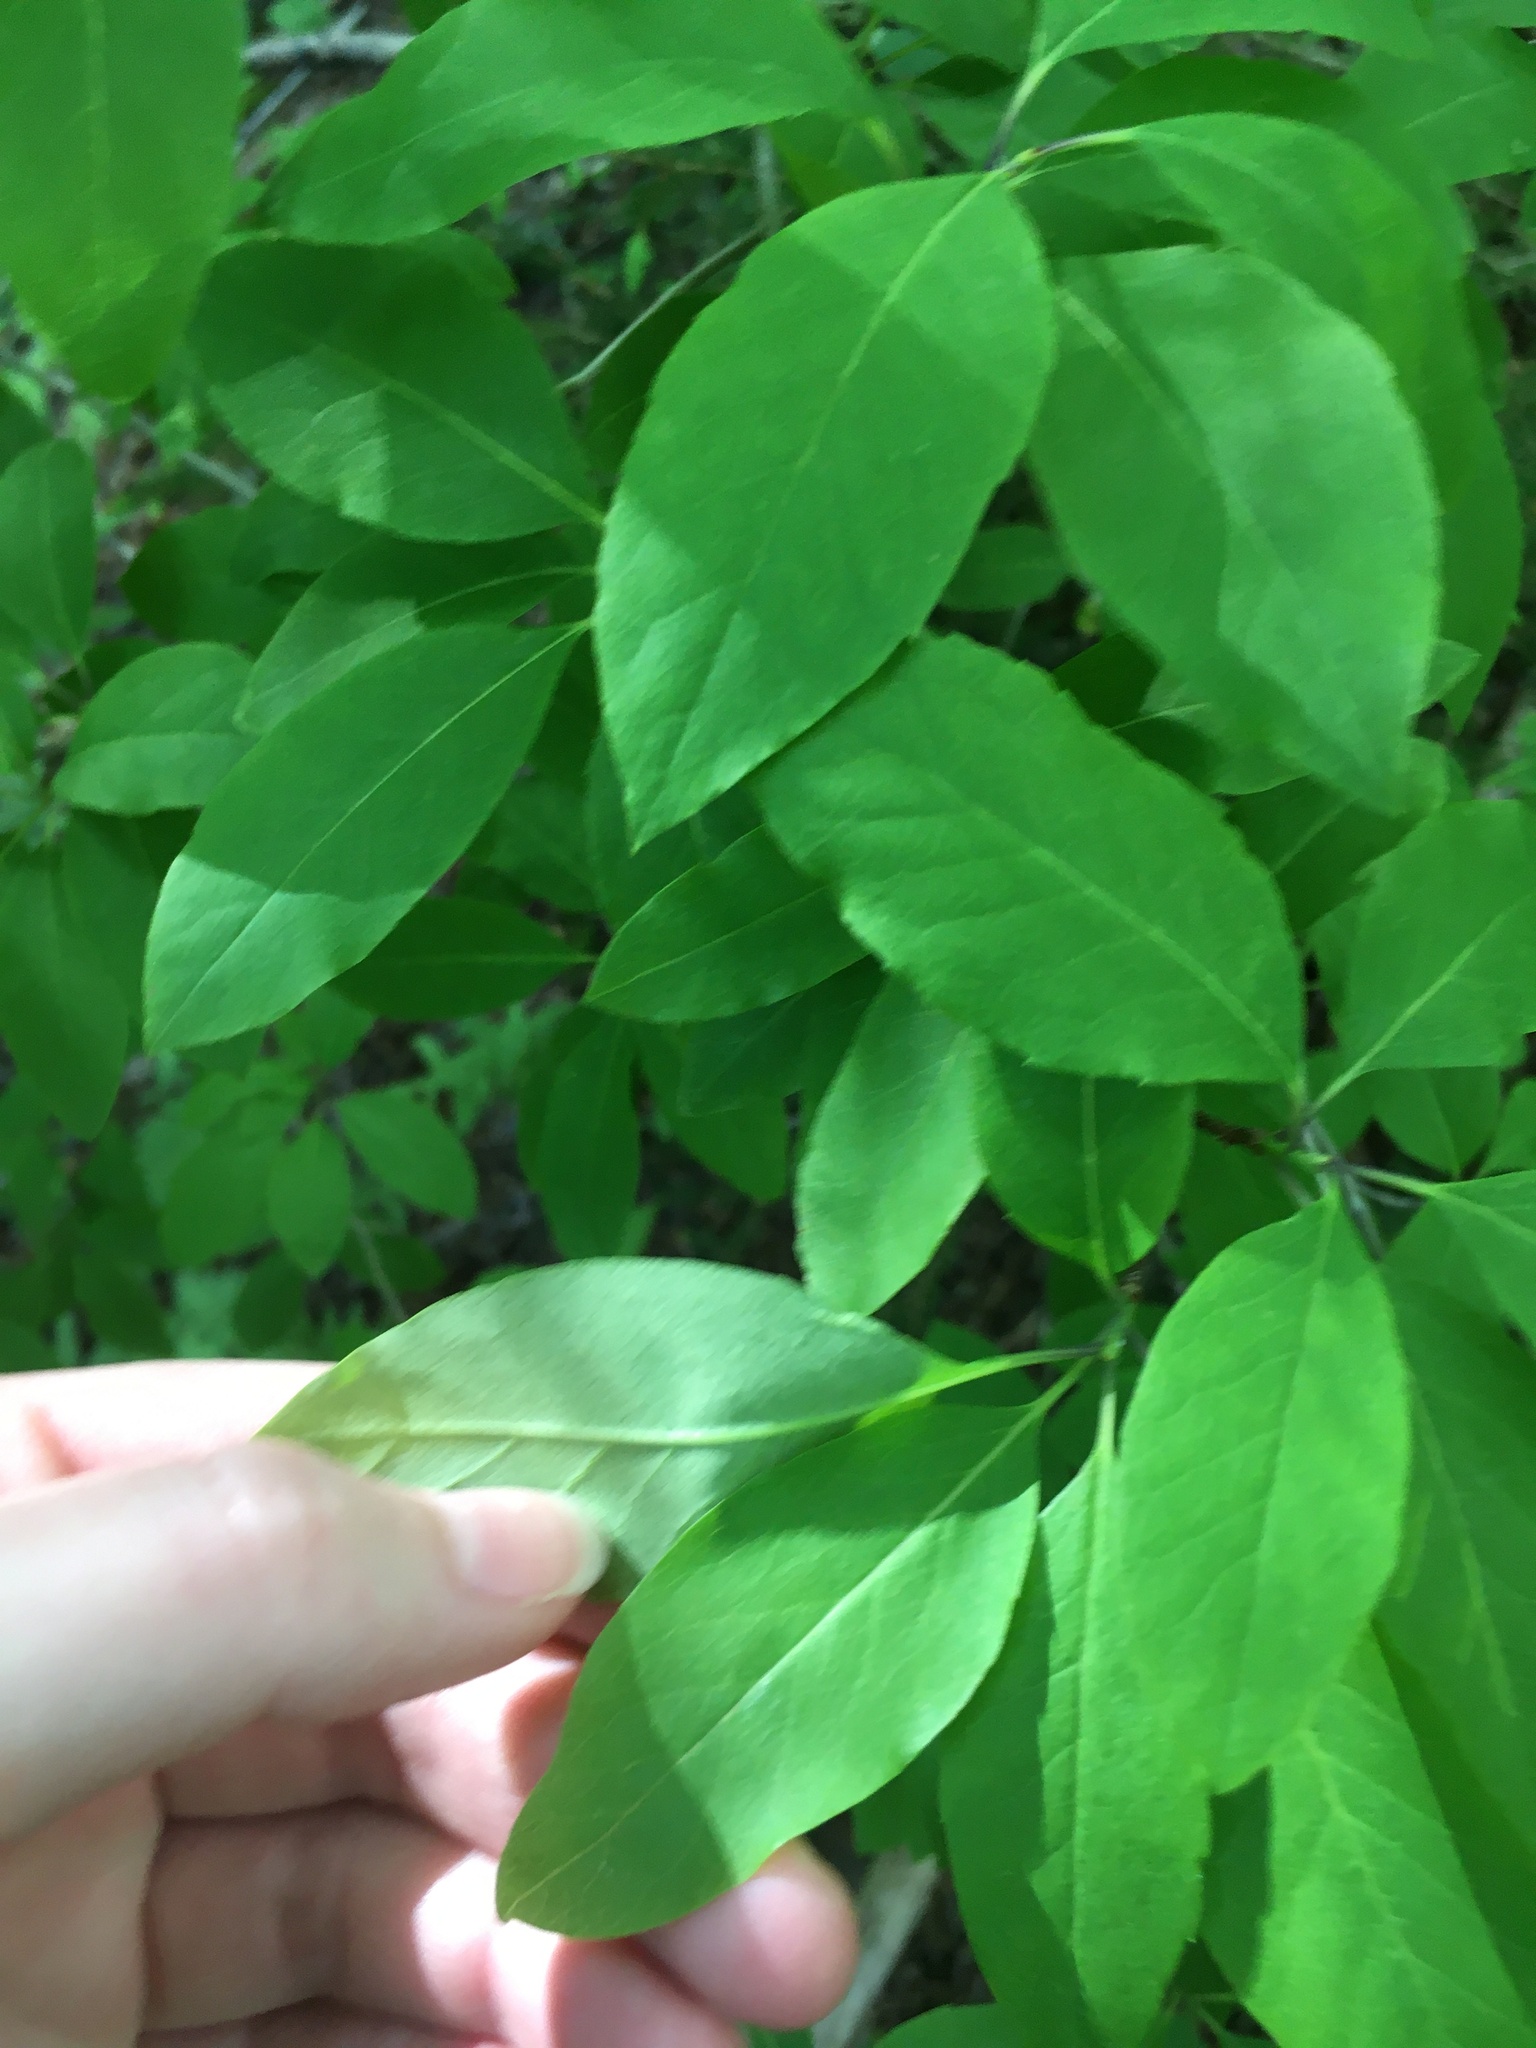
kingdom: Plantae
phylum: Tracheophyta
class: Magnoliopsida
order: Aquifoliales
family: Aquifoliaceae
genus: Ilex
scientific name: Ilex mucronata
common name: Catberry
